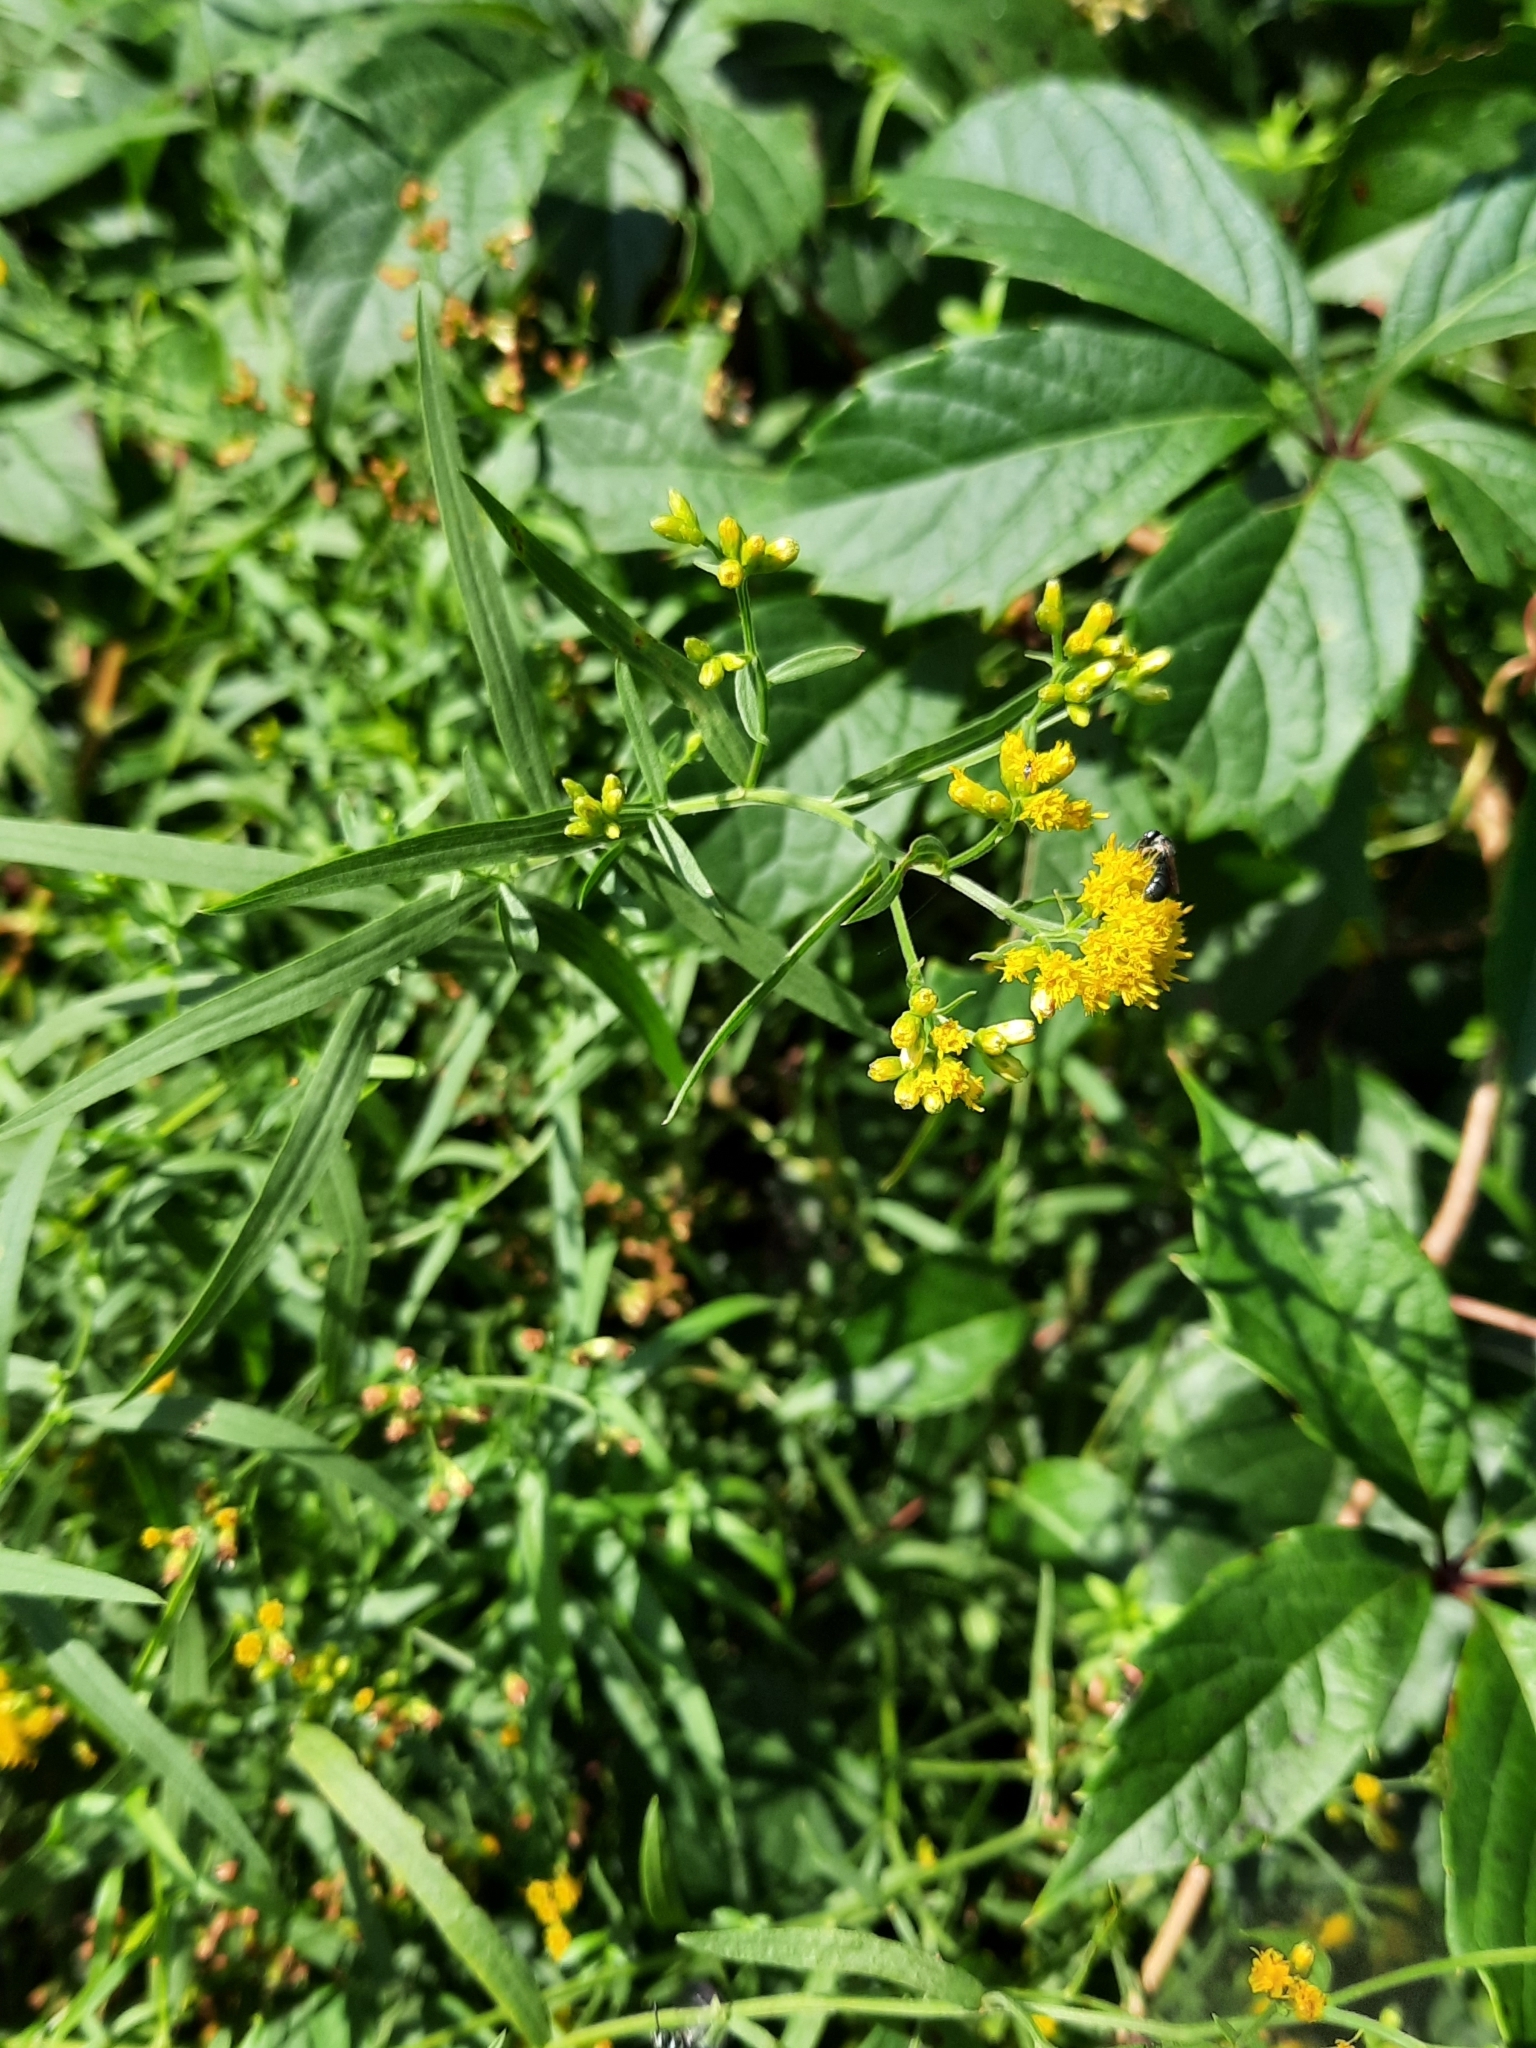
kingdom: Plantae
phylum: Tracheophyta
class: Magnoliopsida
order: Asterales
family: Asteraceae
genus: Euthamia
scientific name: Euthamia graminifolia
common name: Common goldentop
